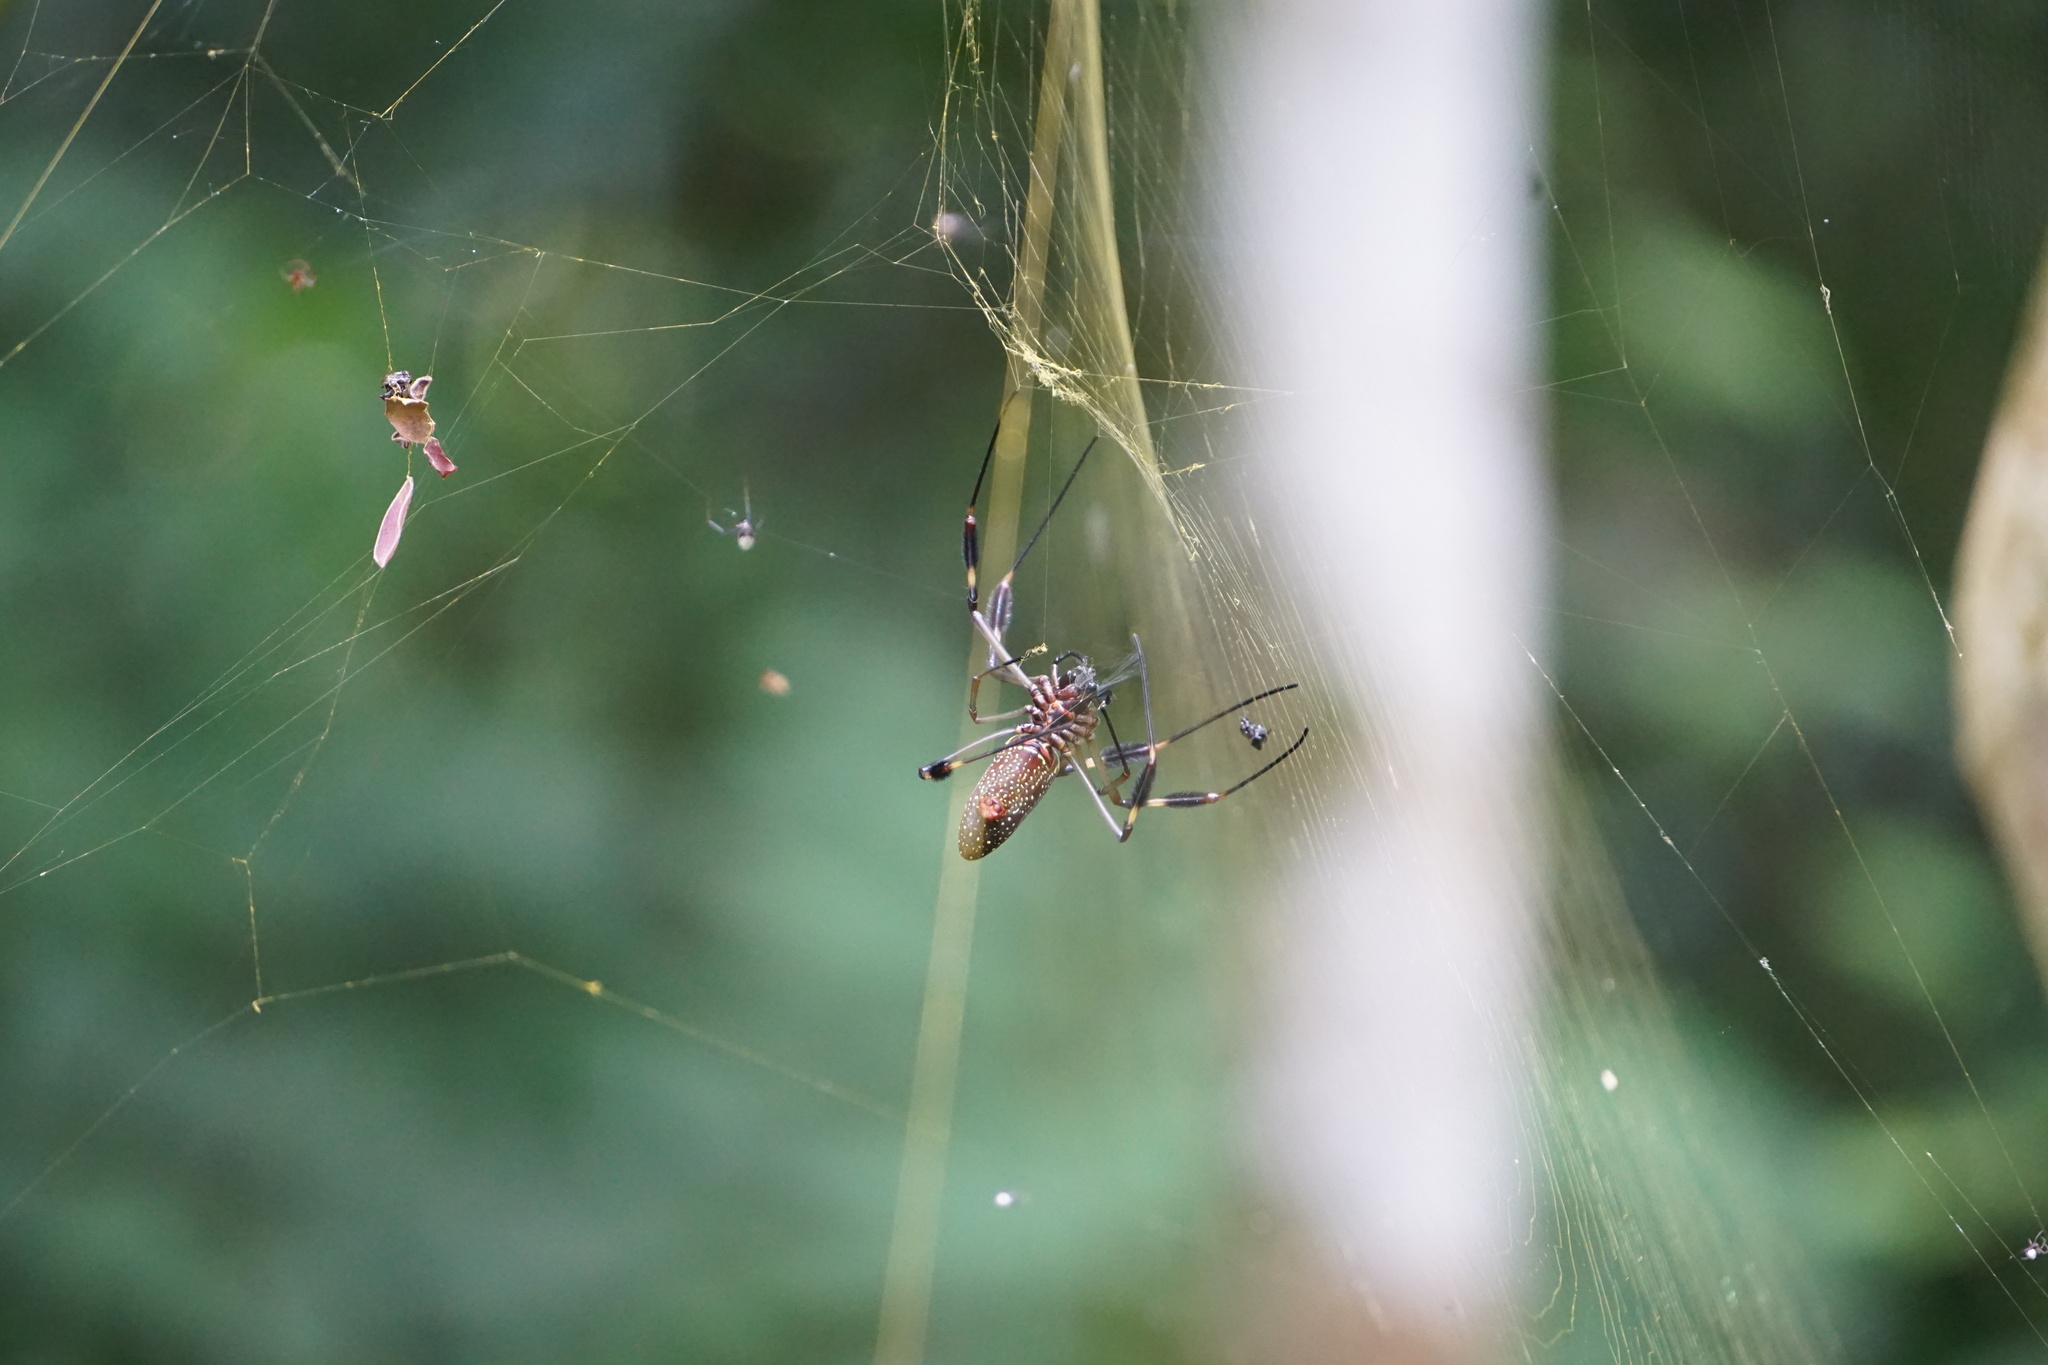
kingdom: Animalia
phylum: Arthropoda
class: Arachnida
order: Araneae
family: Araneidae
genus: Trichonephila
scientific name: Trichonephila clavipes
